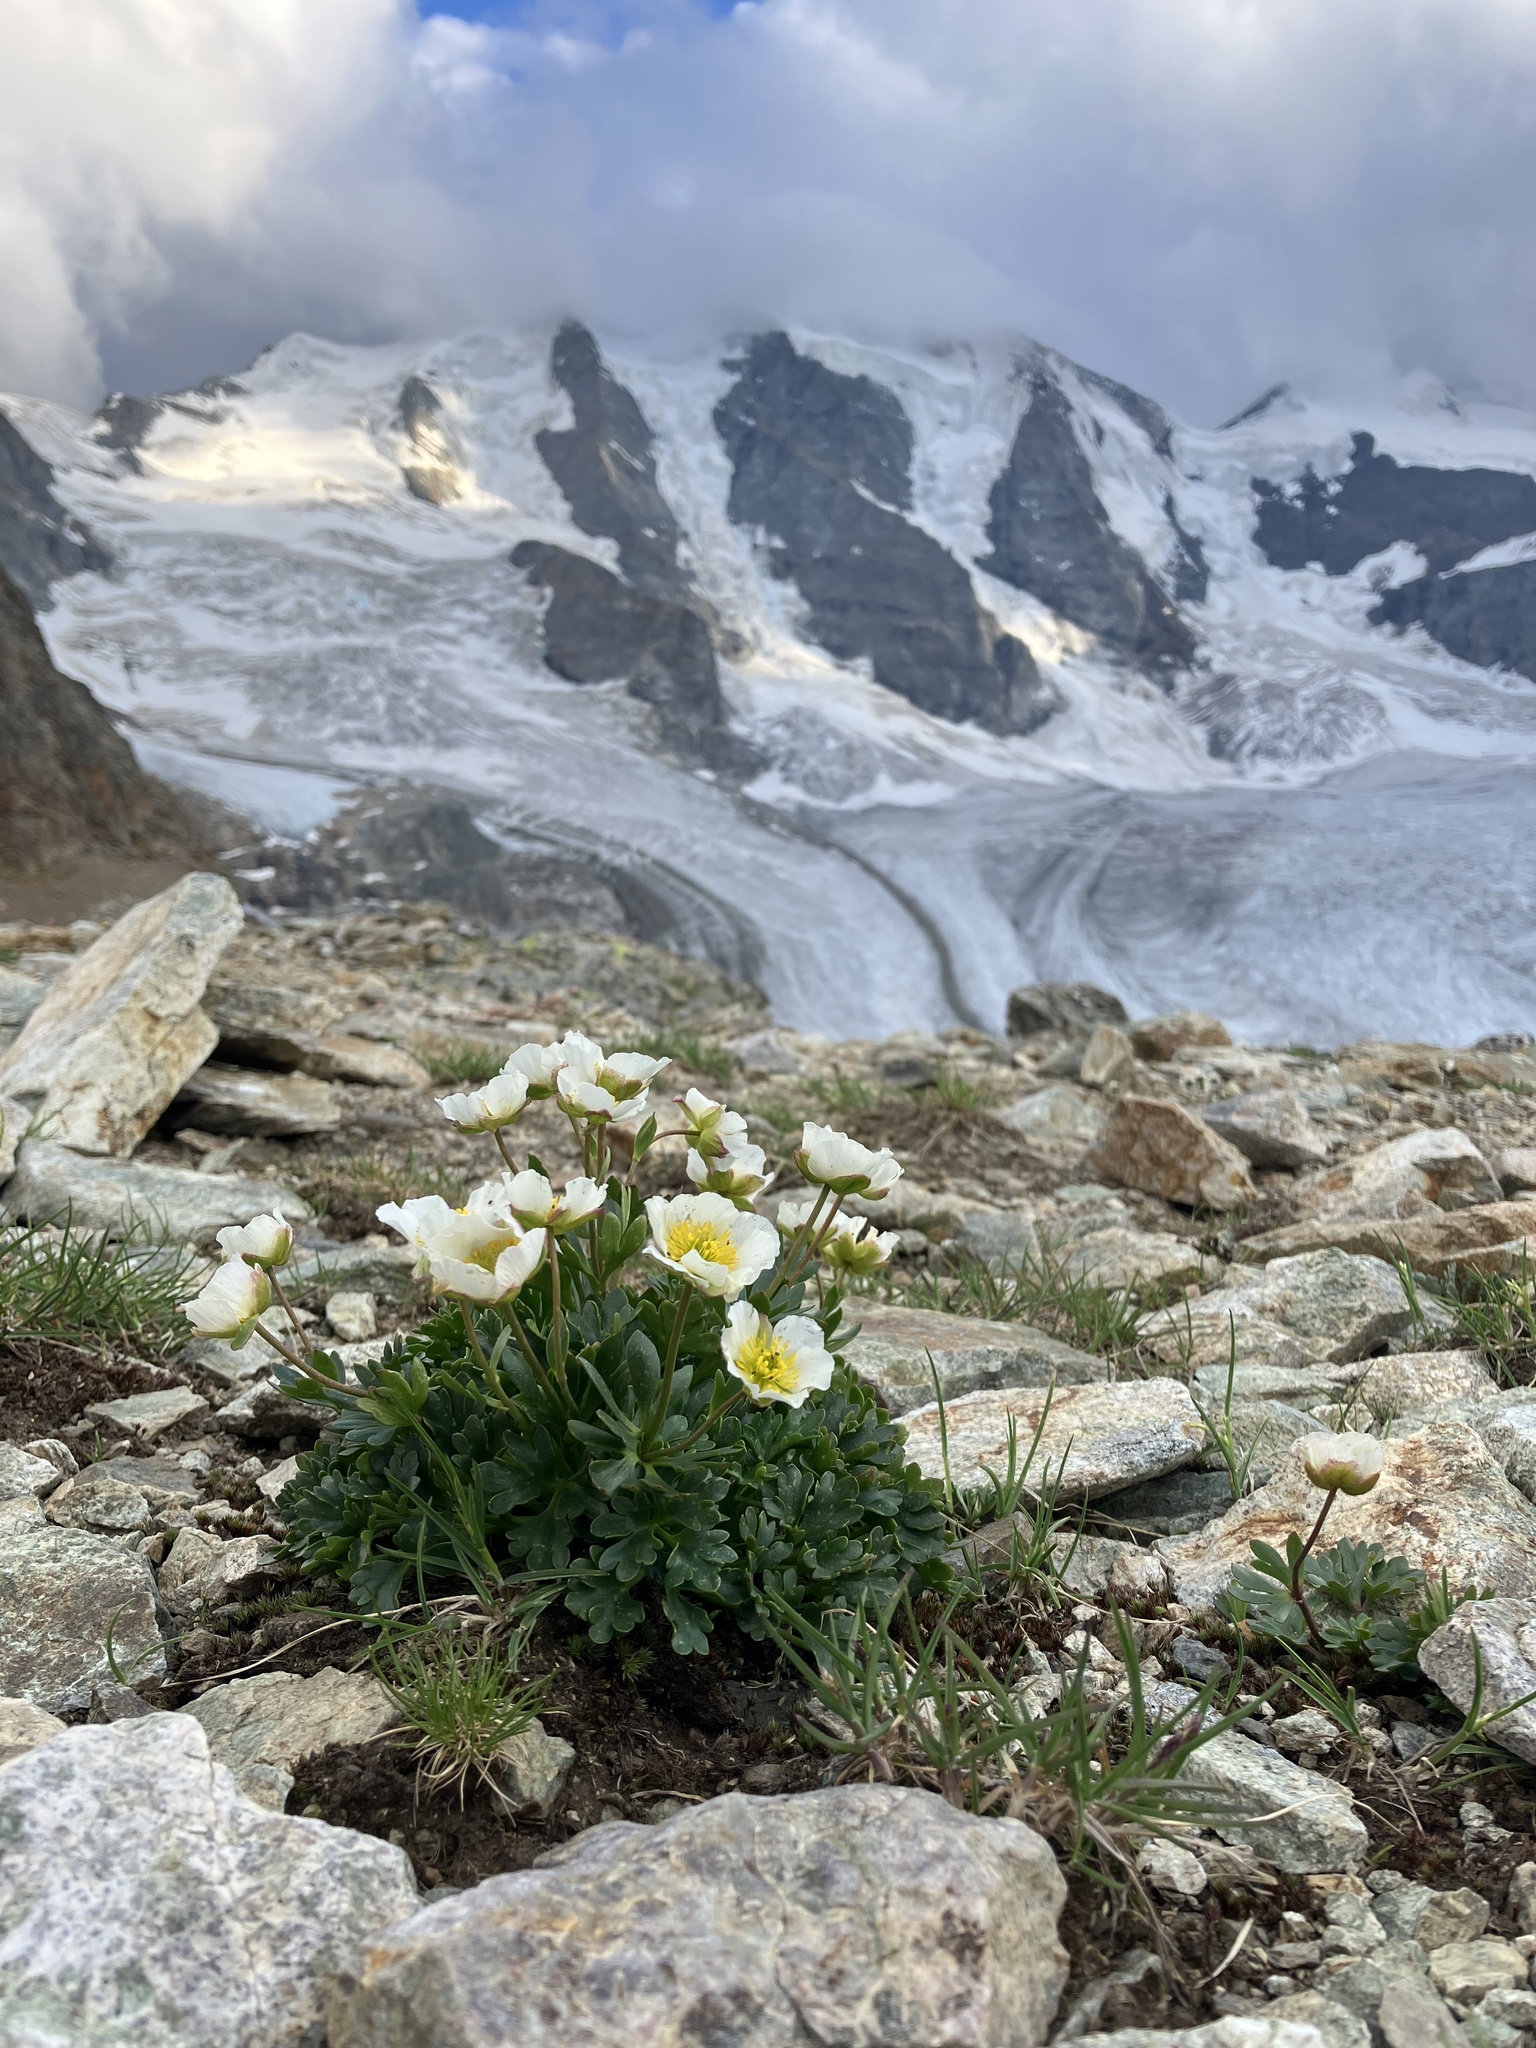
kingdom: Plantae
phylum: Tracheophyta
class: Magnoliopsida
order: Ranunculales
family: Ranunculaceae
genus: Ranunculus
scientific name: Ranunculus glacialis
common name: Glacier buttercup
